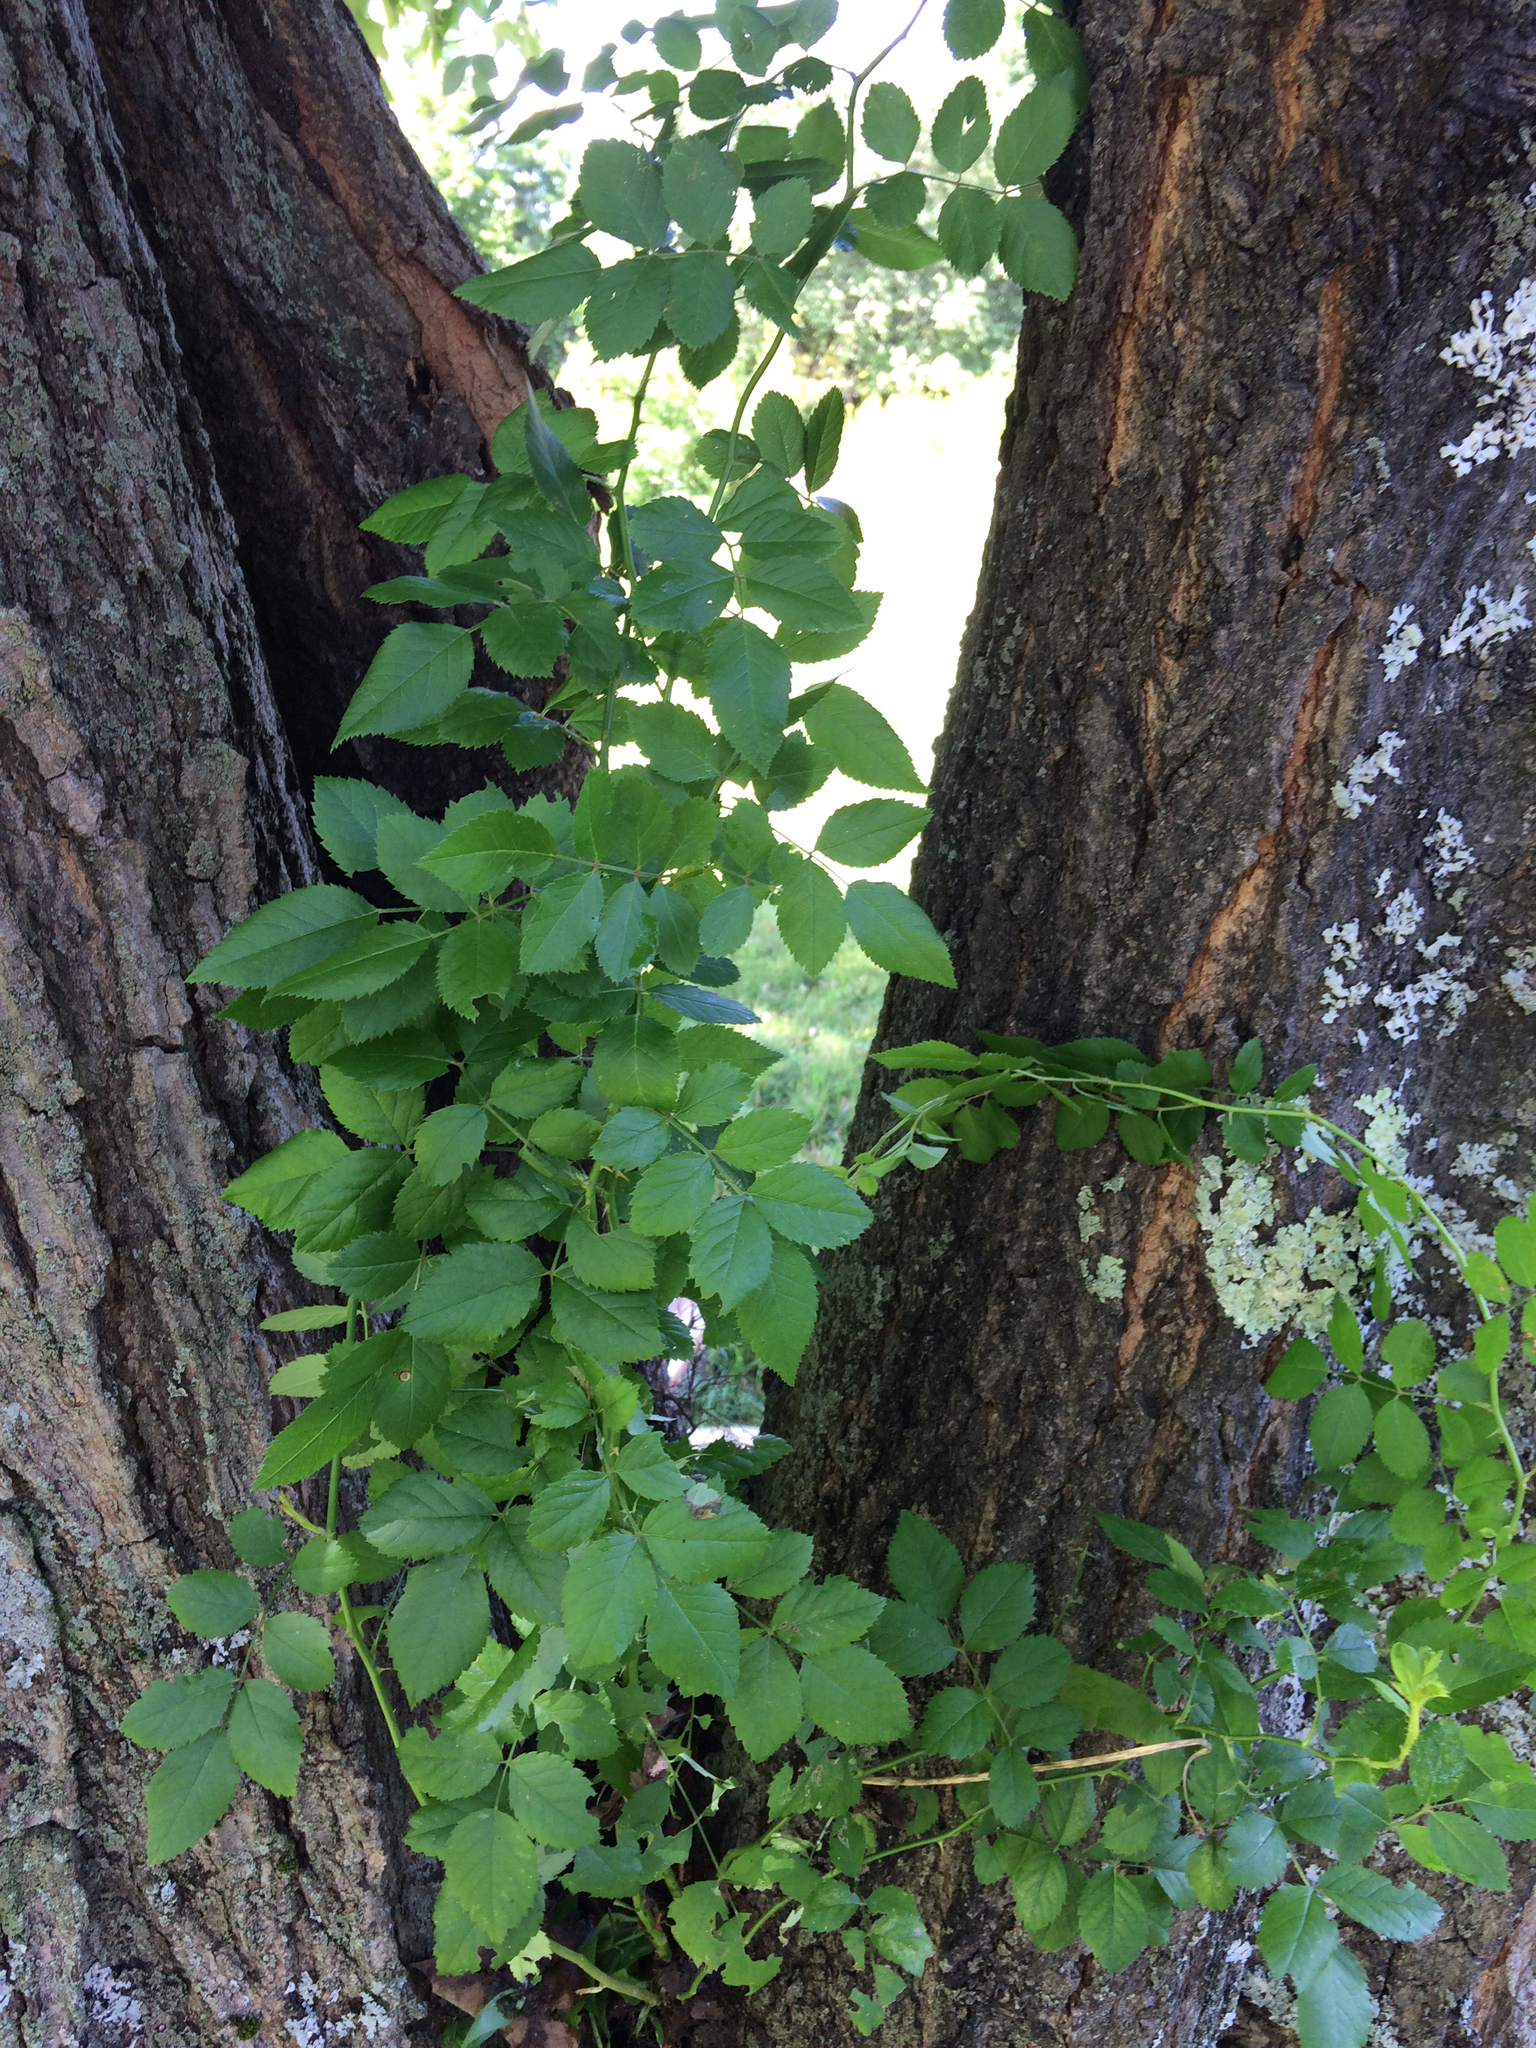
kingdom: Plantae
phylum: Tracheophyta
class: Magnoliopsida
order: Rosales
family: Rosaceae
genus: Rosa
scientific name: Rosa multiflora
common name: Multiflora rose
